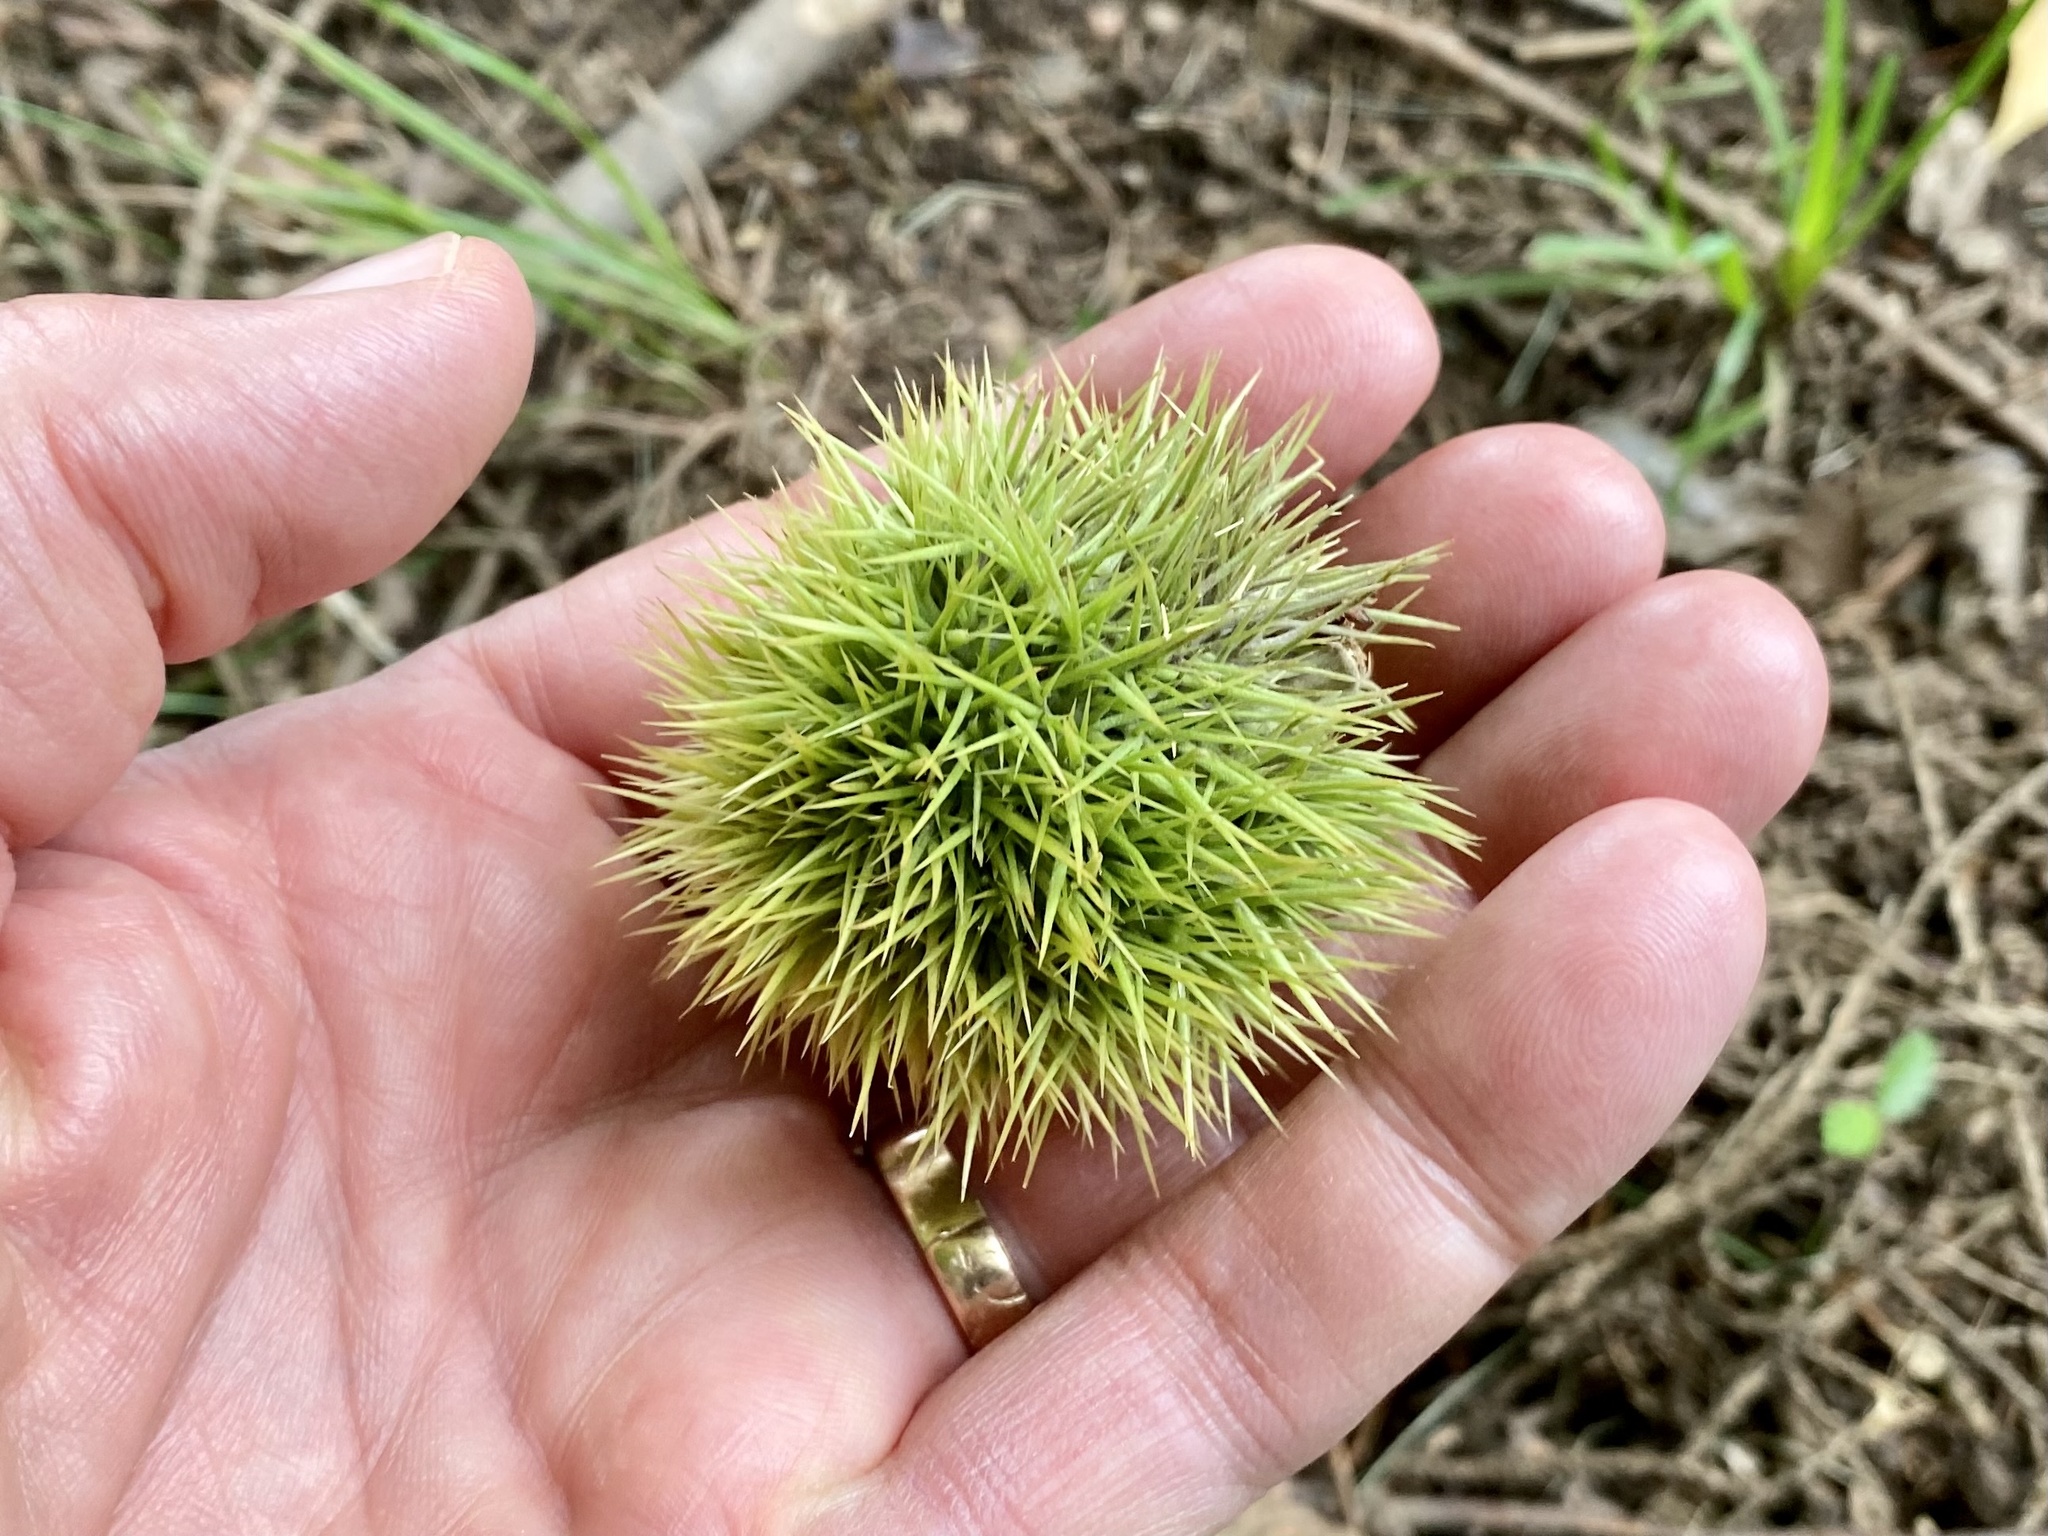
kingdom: Plantae
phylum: Tracheophyta
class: Magnoliopsida
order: Fagales
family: Fagaceae
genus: Castanea
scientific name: Castanea mollissima
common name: Chinese chestnut
